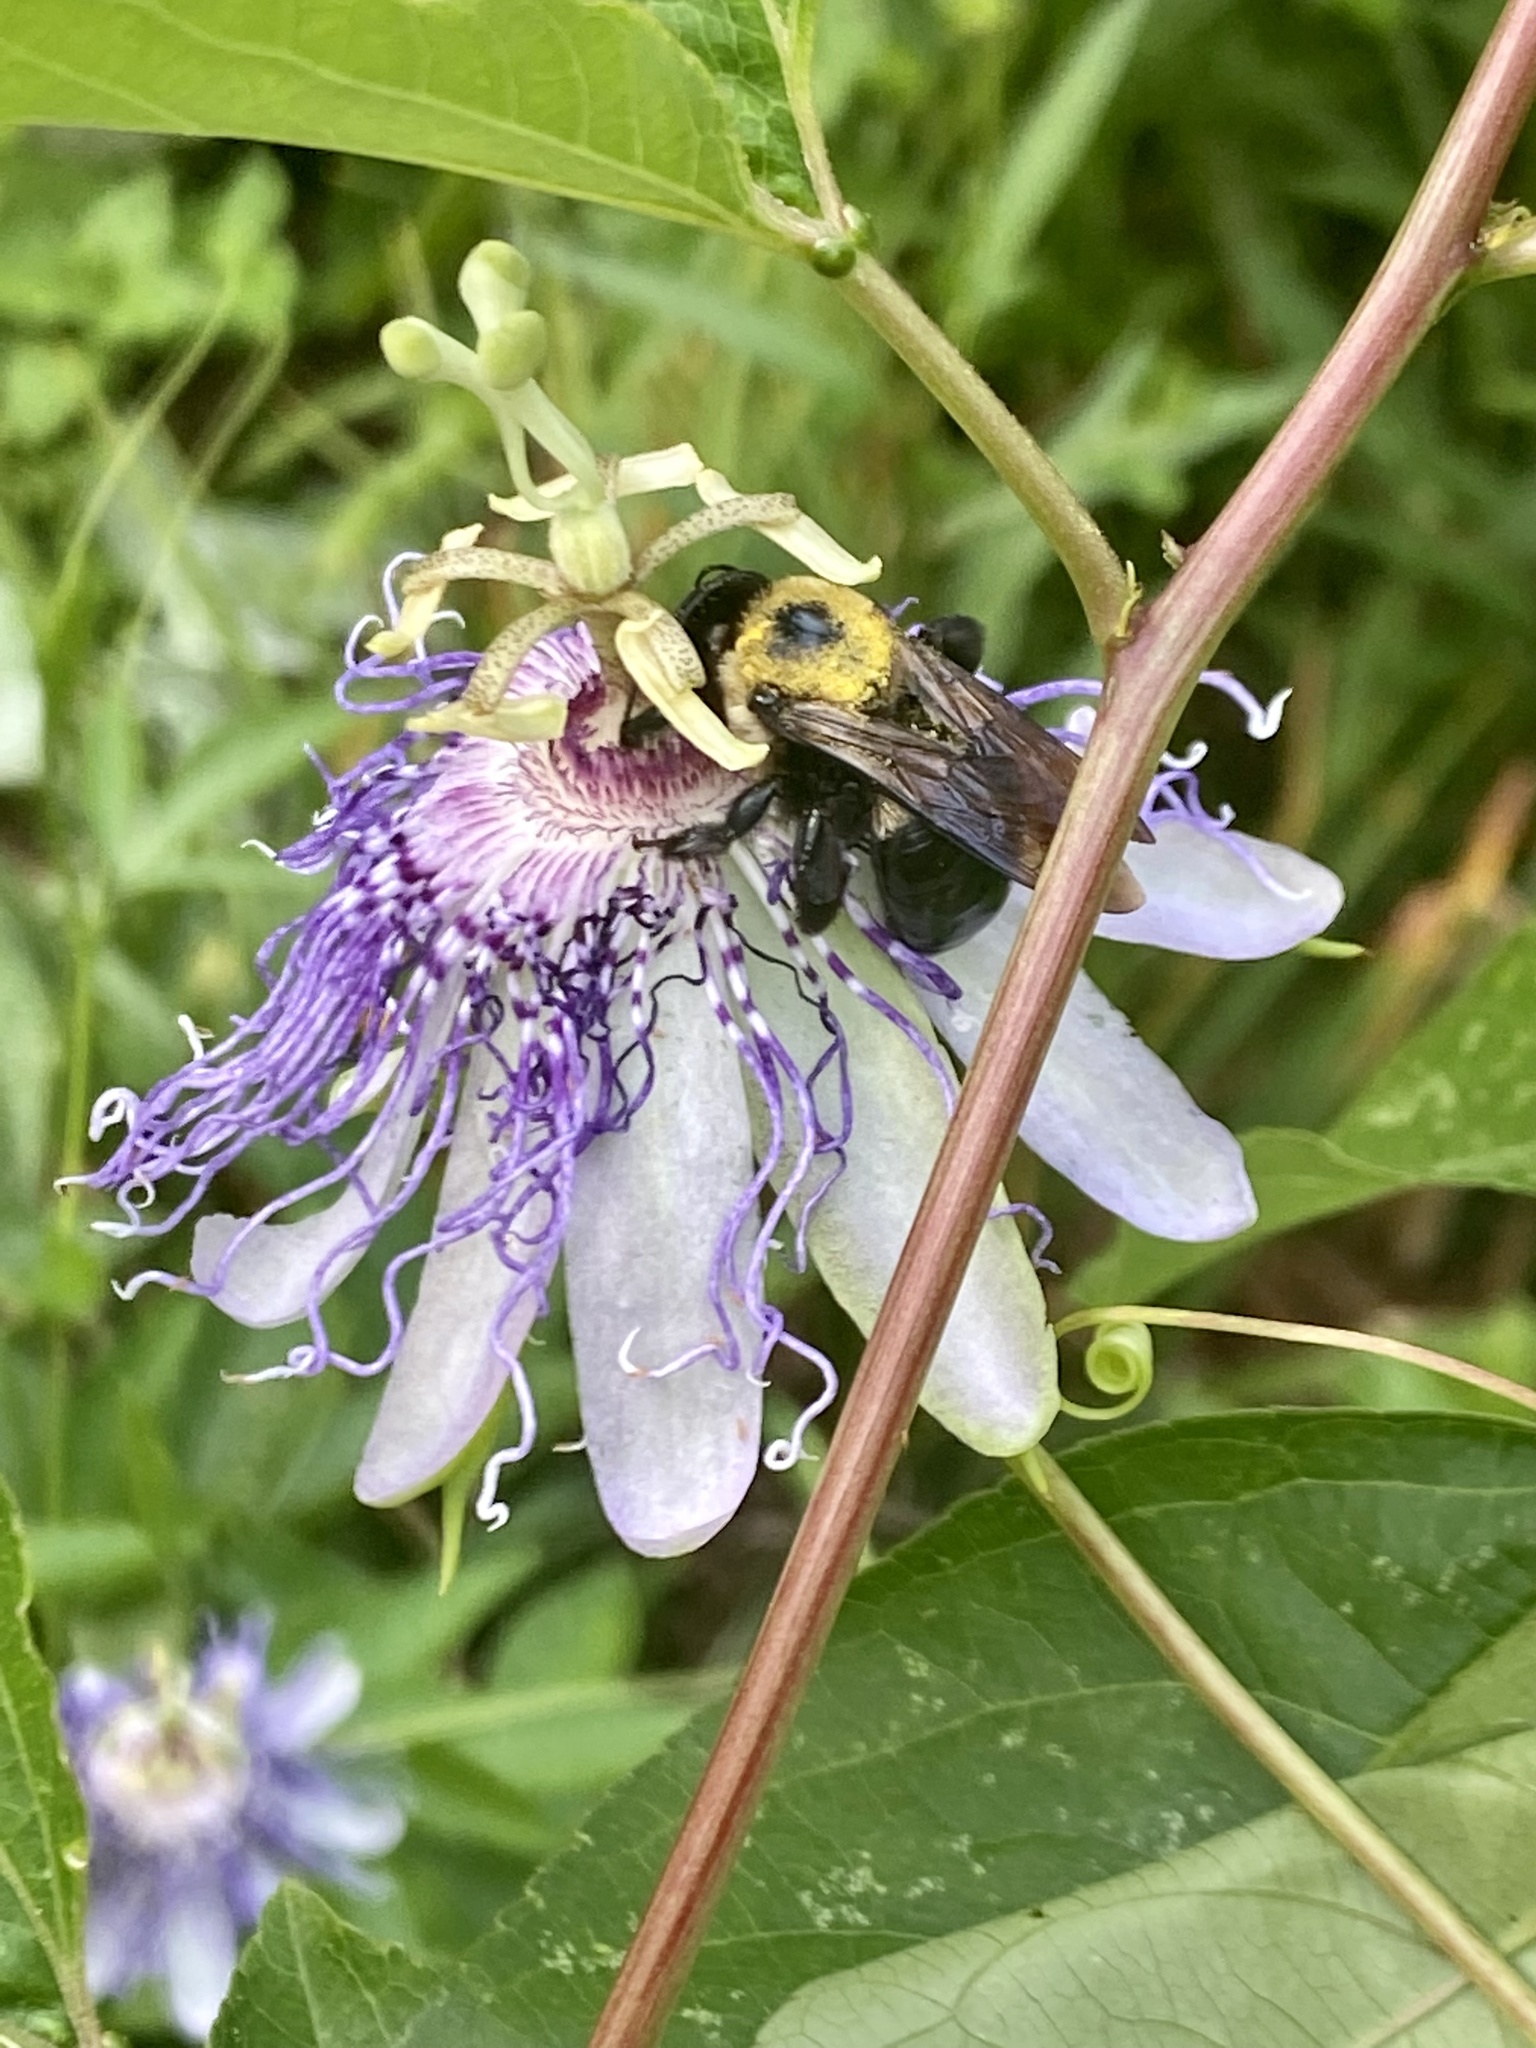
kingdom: Plantae
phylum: Tracheophyta
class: Magnoliopsida
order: Malpighiales
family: Passifloraceae
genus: Passiflora
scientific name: Passiflora incarnata
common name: Apricot-vine
